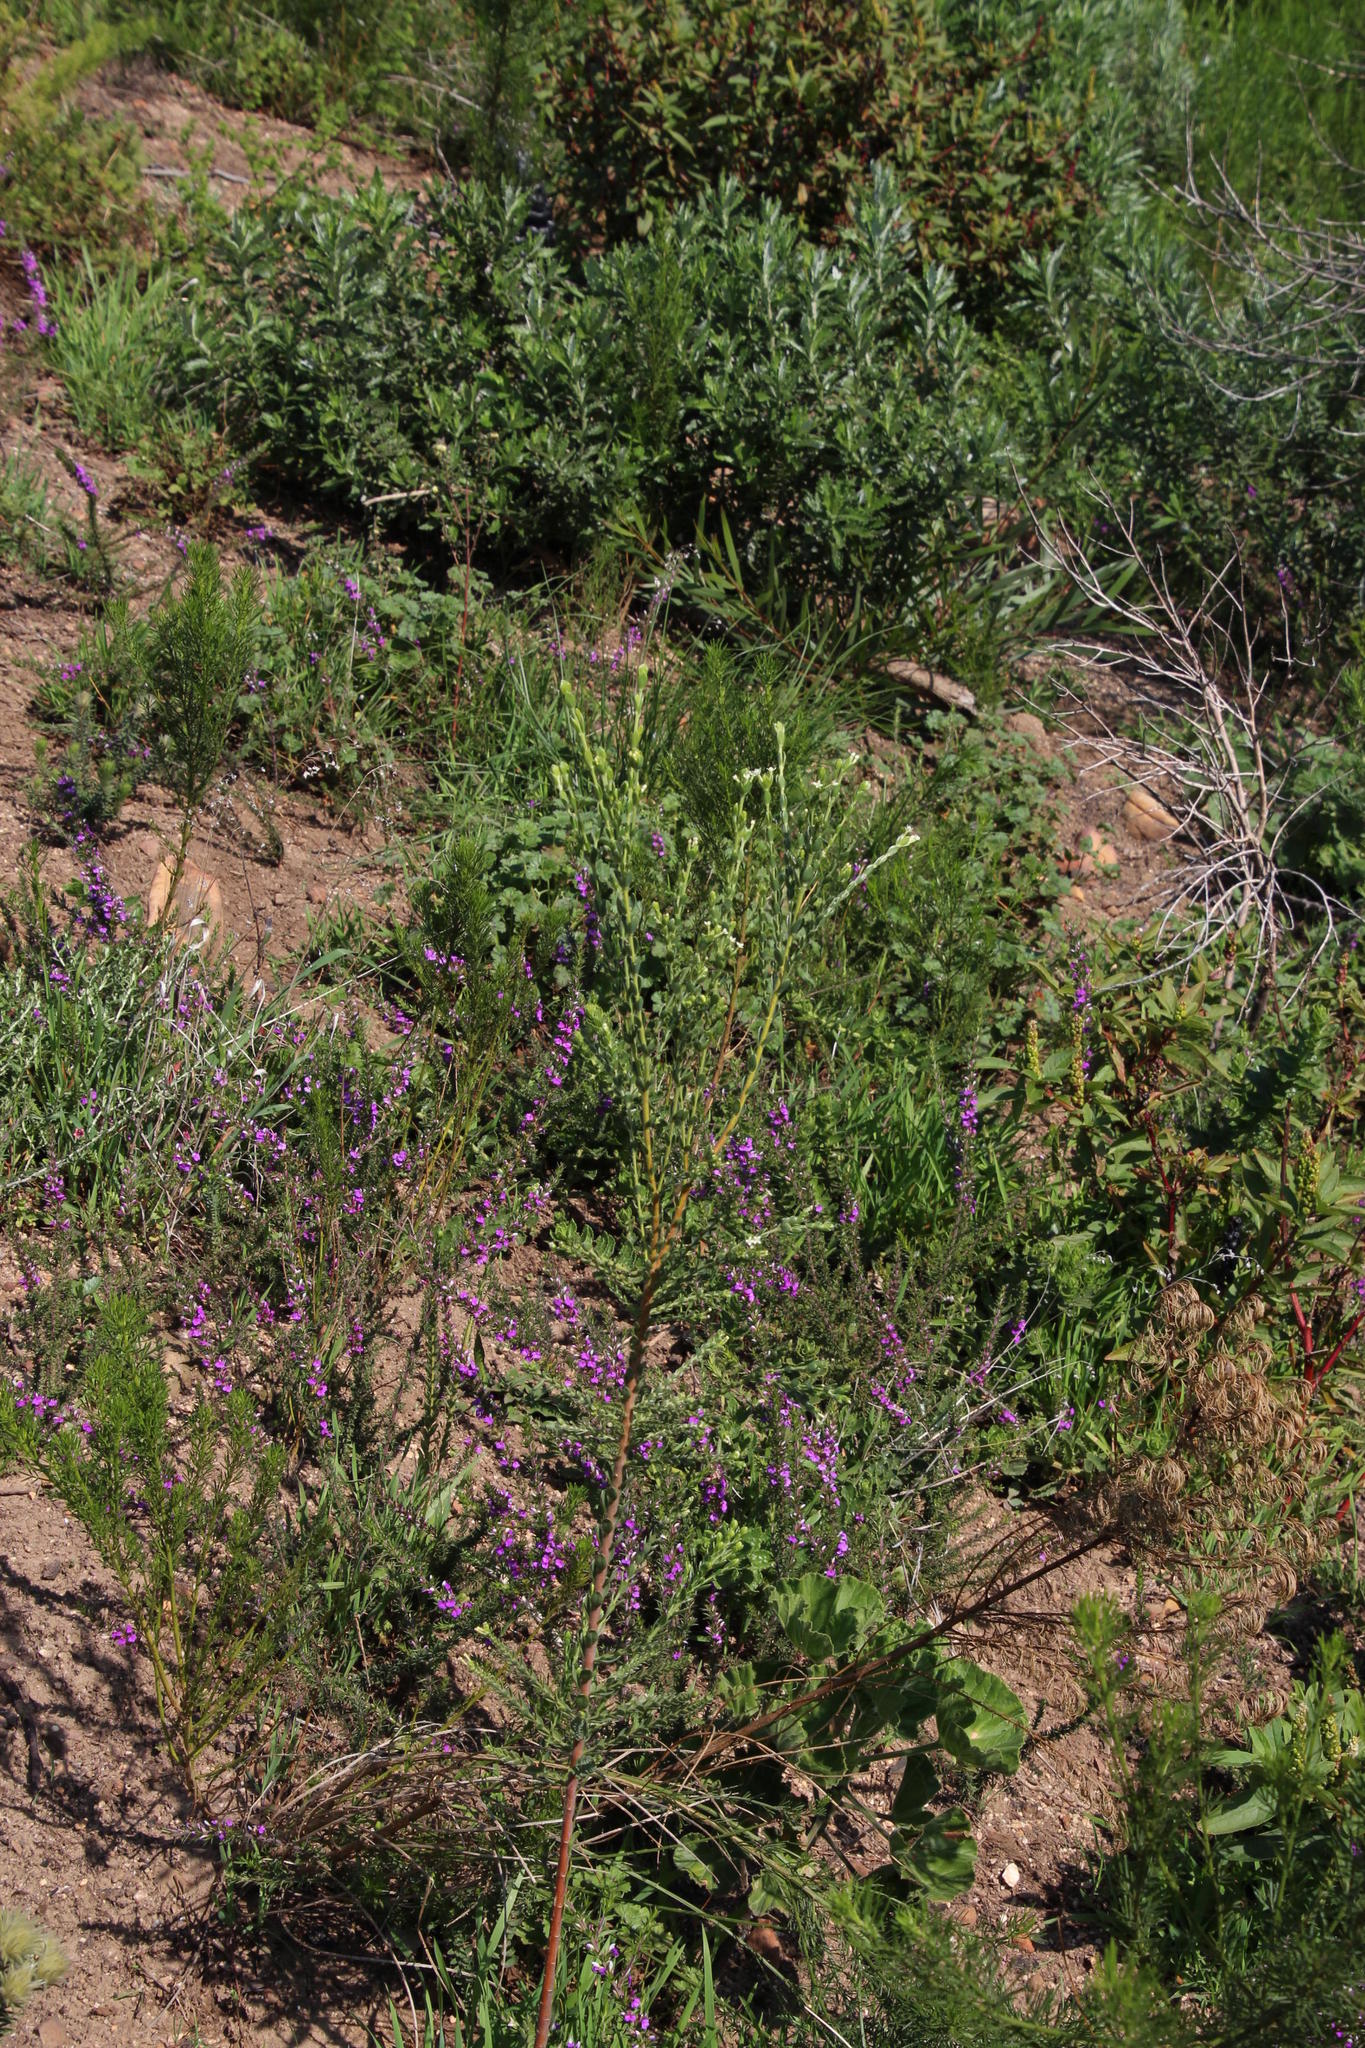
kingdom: Plantae
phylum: Tracheophyta
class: Magnoliopsida
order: Fabales
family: Polygalaceae
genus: Muraltia
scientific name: Muraltia heisteria
